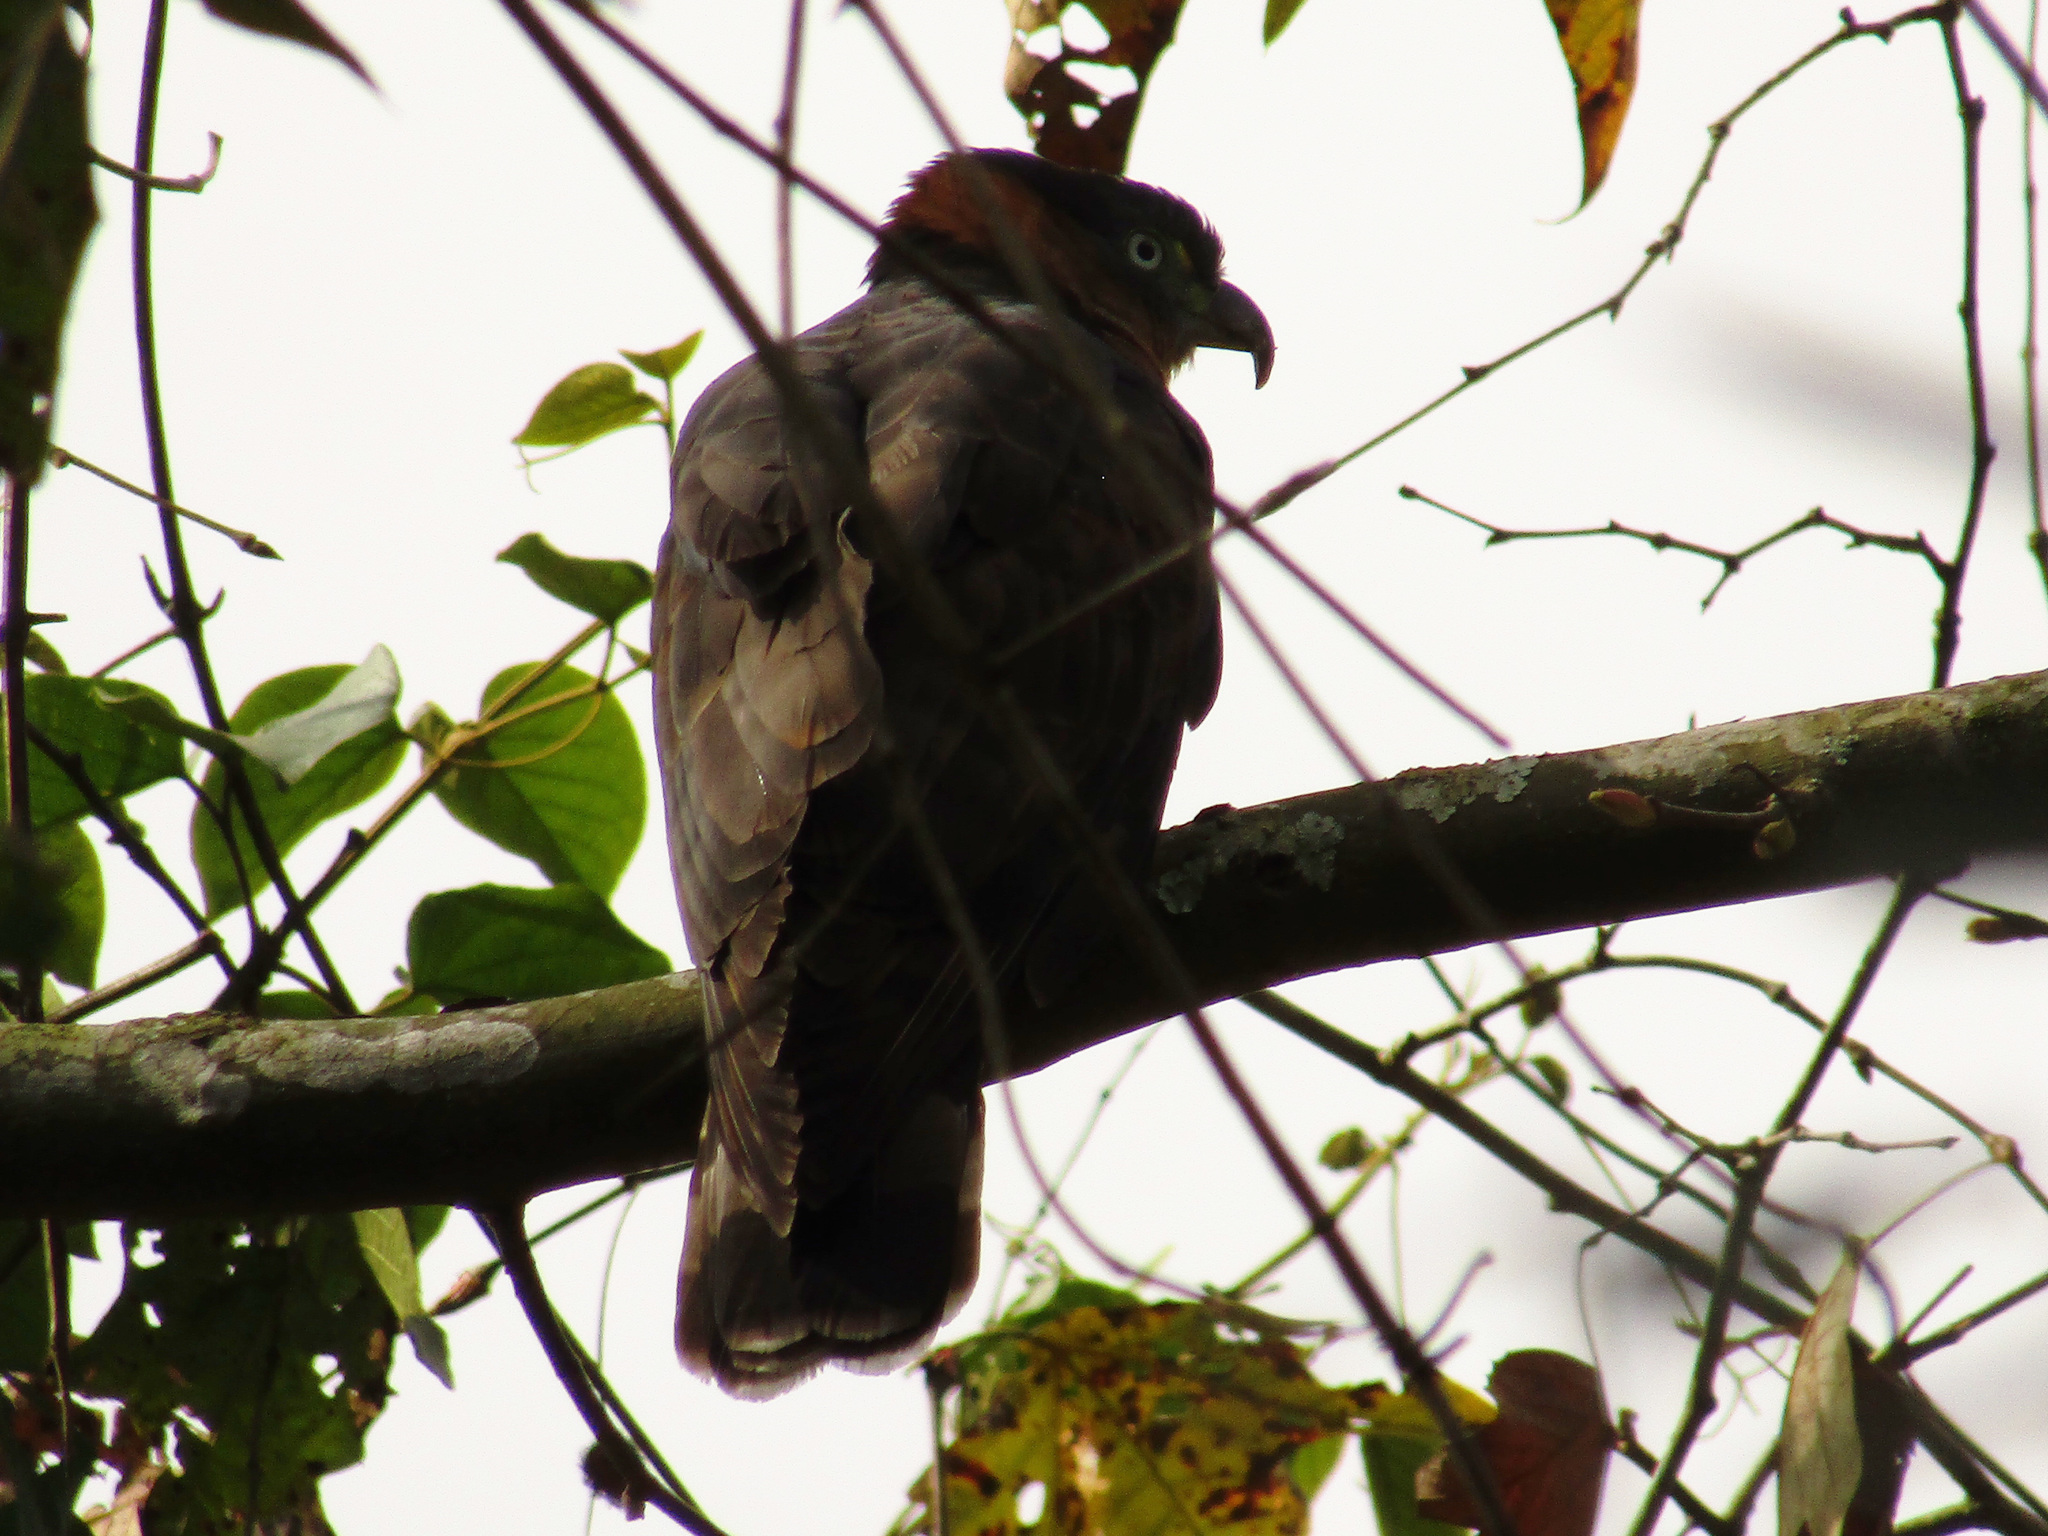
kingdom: Animalia
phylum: Chordata
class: Aves
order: Accipitriformes
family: Accipitridae
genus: Chondrohierax
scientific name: Chondrohierax uncinatus
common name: Hook-billed kite
